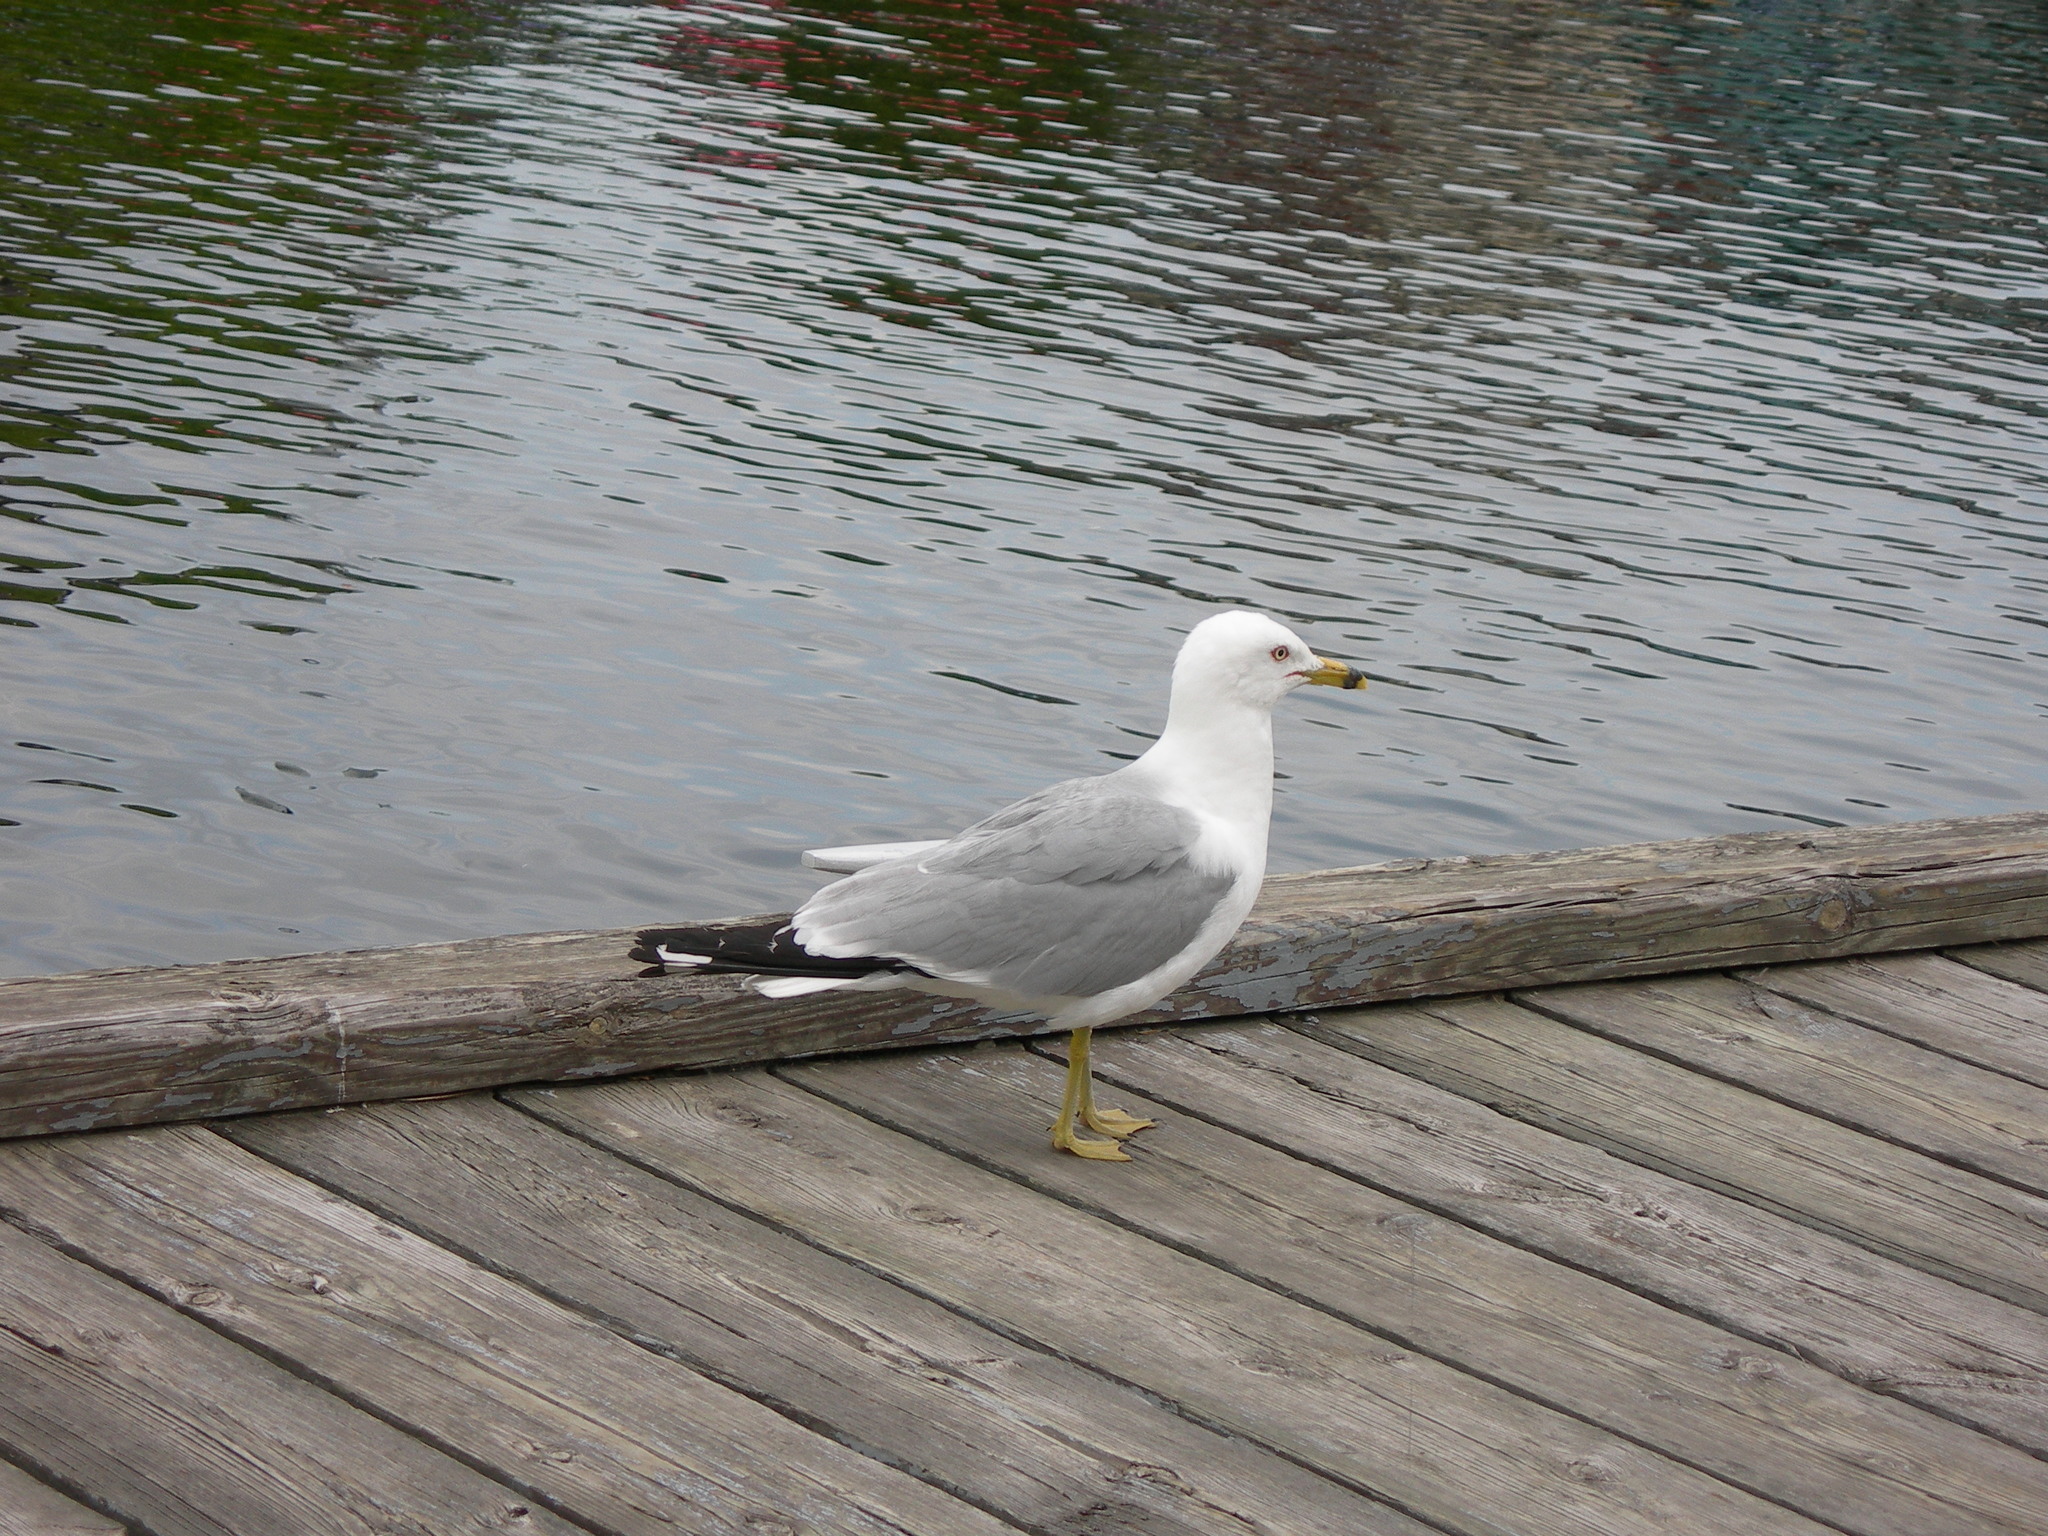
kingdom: Animalia
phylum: Chordata
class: Aves
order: Charadriiformes
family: Laridae
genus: Larus
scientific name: Larus delawarensis
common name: Ring-billed gull
